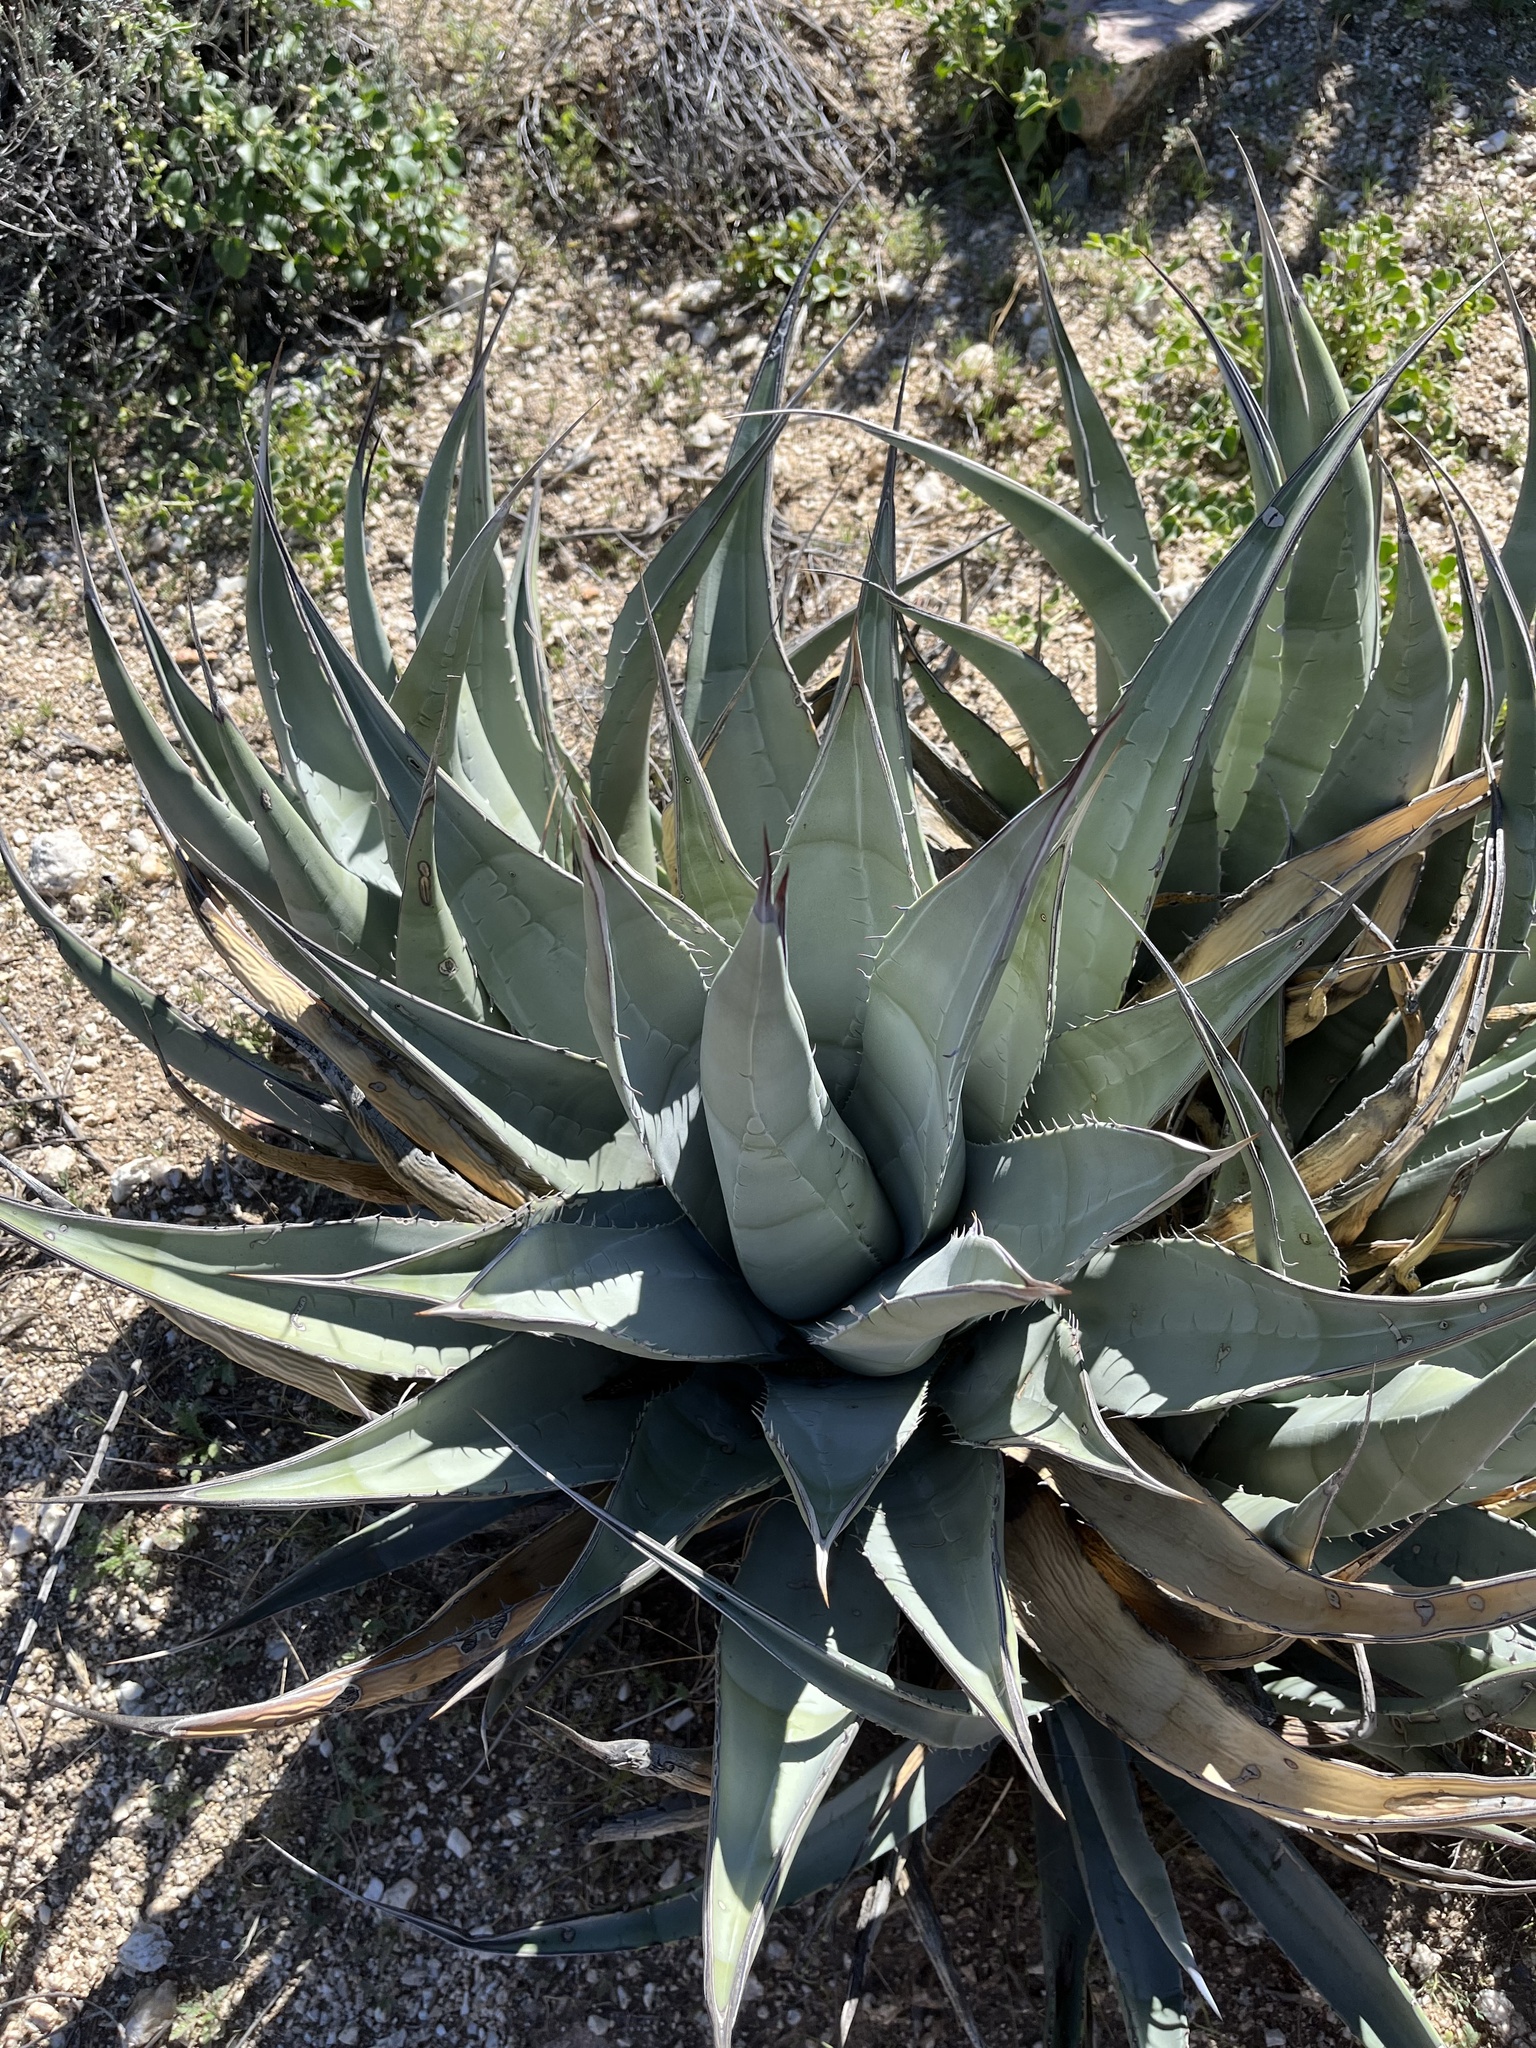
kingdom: Plantae
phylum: Tracheophyta
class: Liliopsida
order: Asparagales
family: Asparagaceae
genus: Agave
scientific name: Agave deserti
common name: Desert agave
